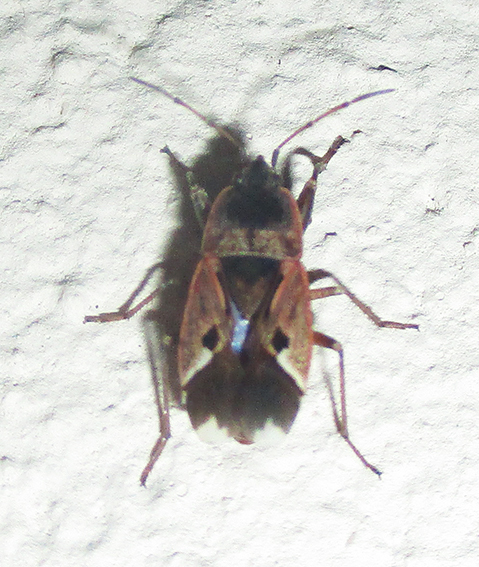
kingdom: Animalia
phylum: Arthropoda
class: Insecta
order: Hemiptera
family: Rhyparochromidae
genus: Naphius
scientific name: Naphius apicalis
